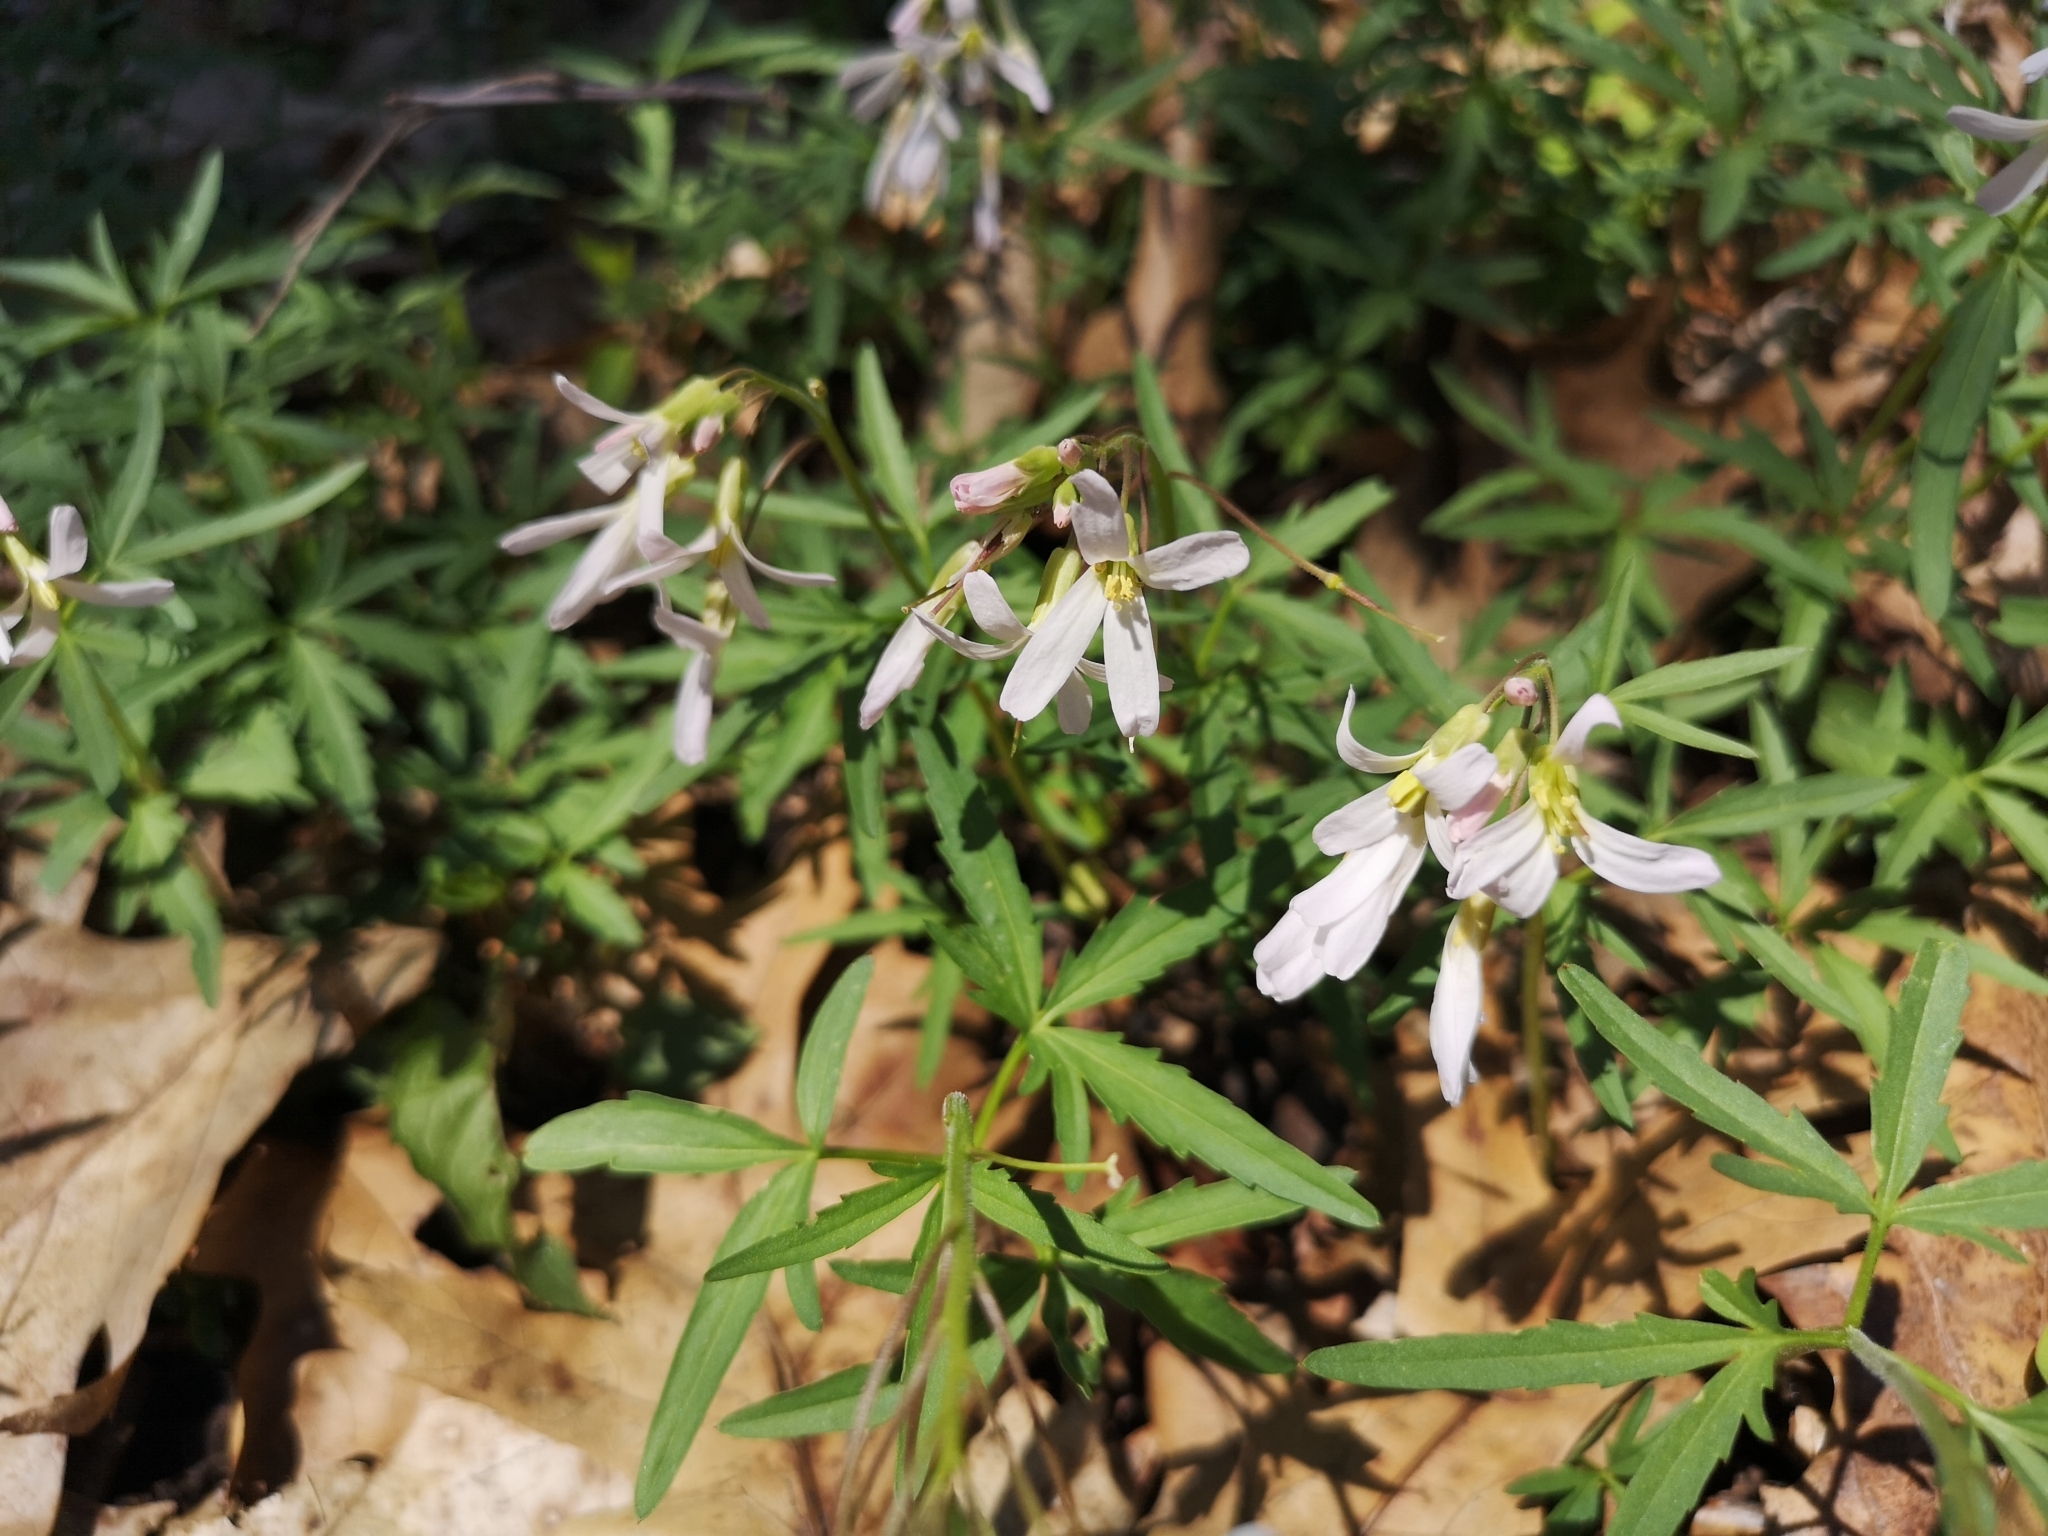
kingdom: Plantae
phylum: Tracheophyta
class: Magnoliopsida
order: Brassicales
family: Brassicaceae
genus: Cardamine
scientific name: Cardamine concatenata
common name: Cut-leaf toothcup
